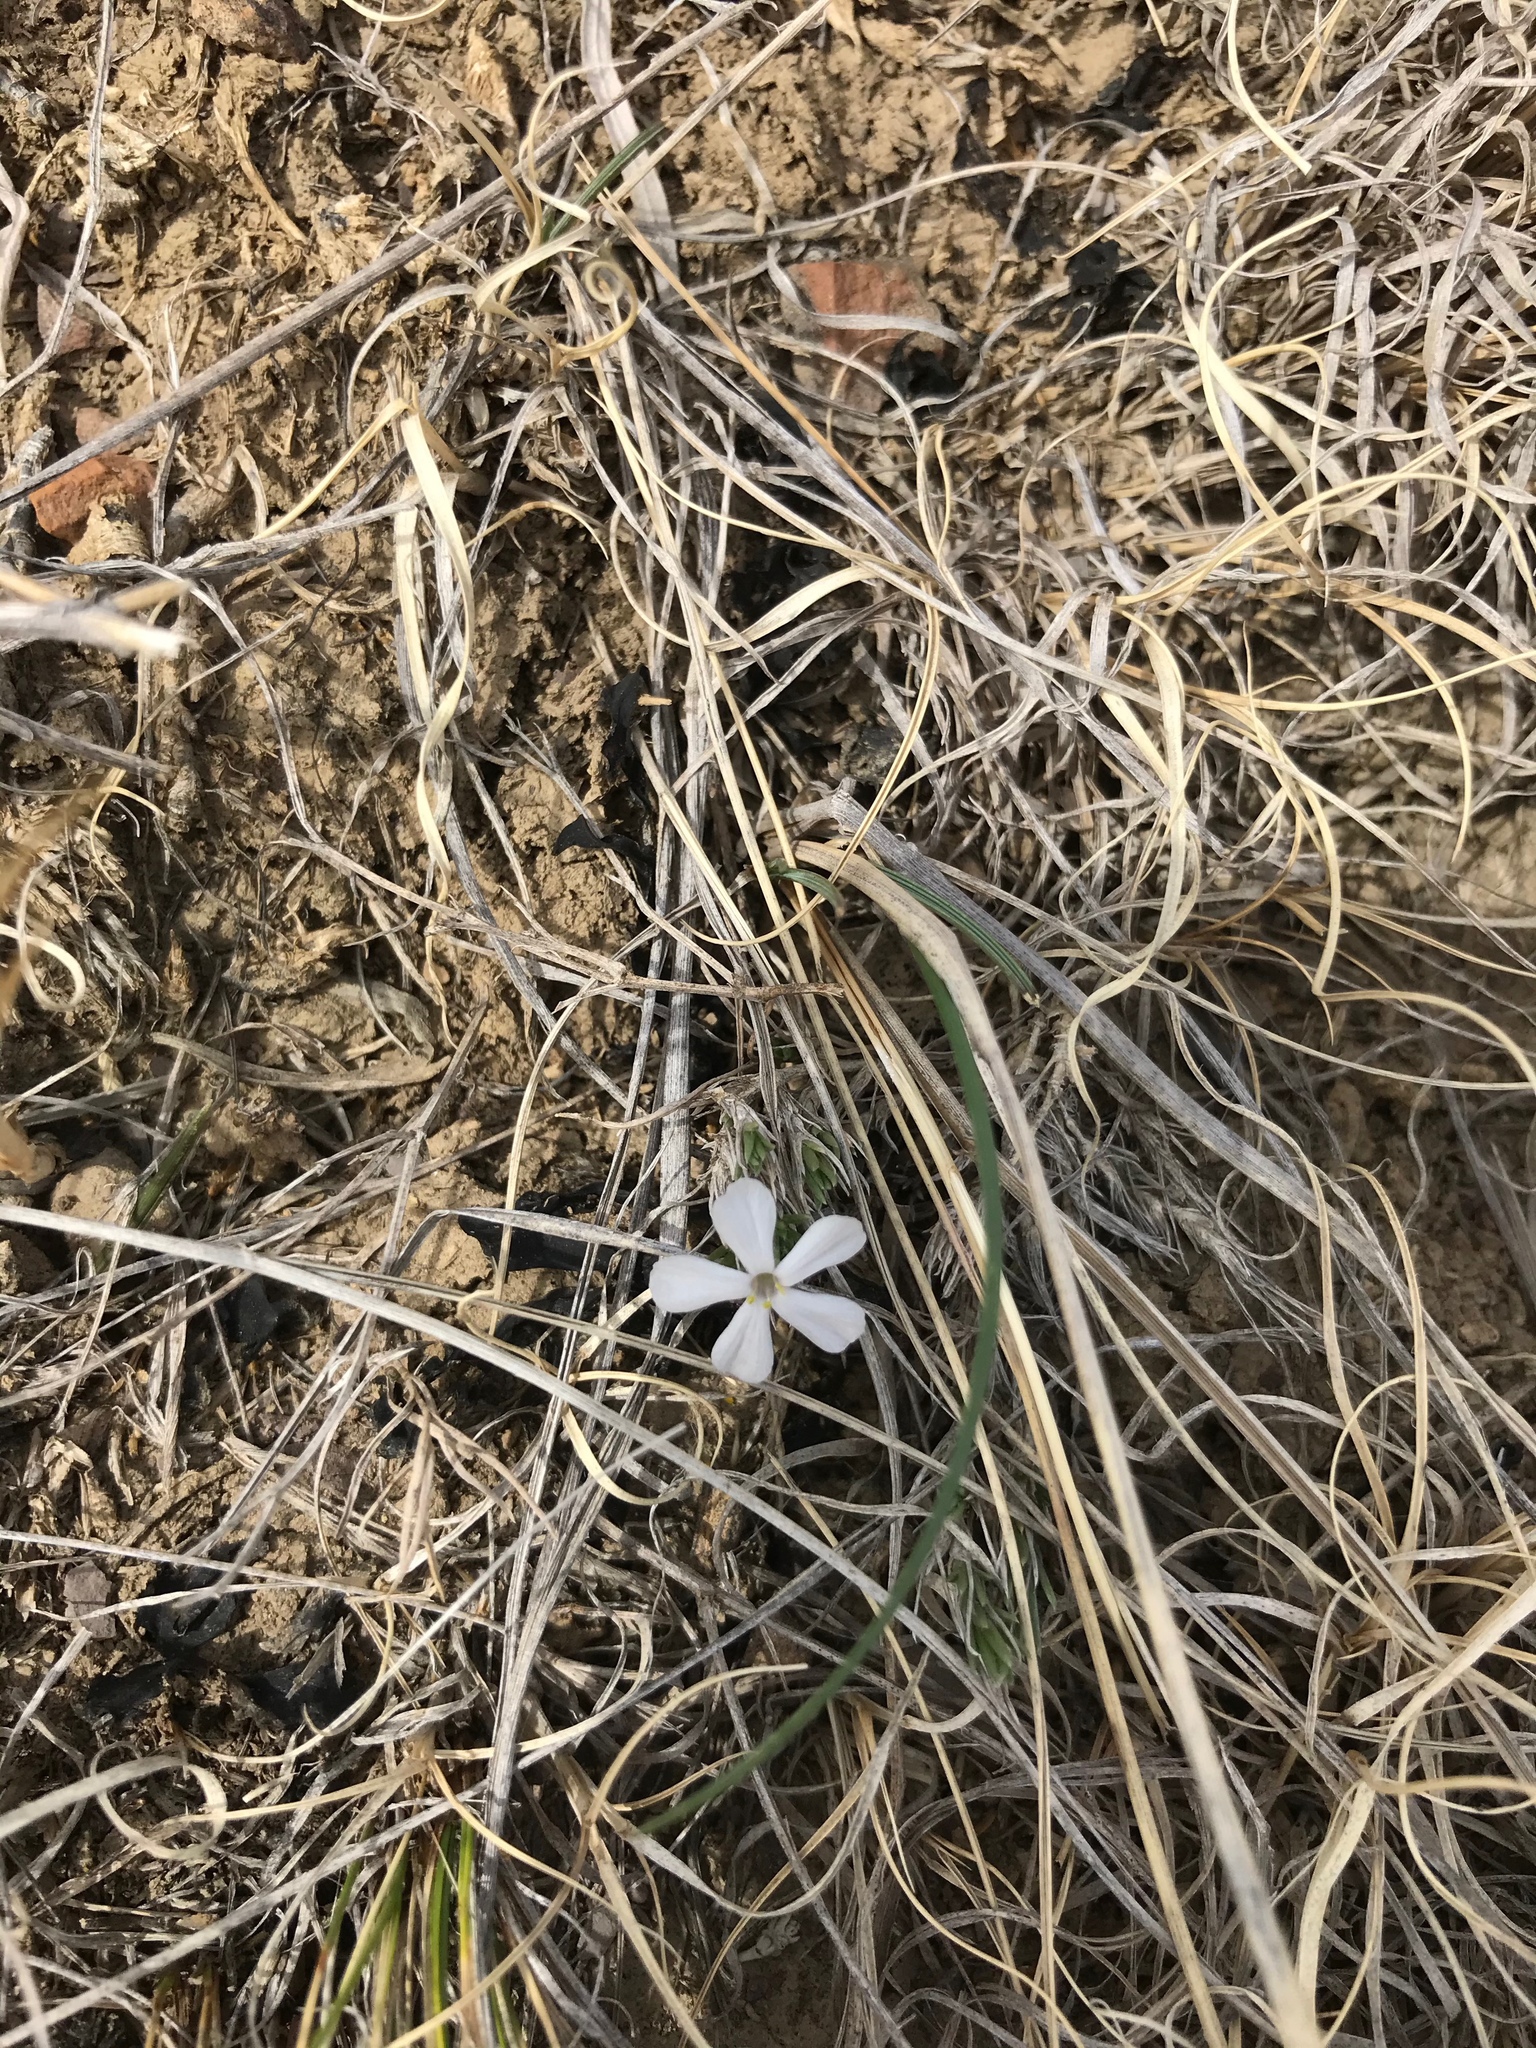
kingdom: Plantae
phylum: Tracheophyta
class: Magnoliopsida
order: Ericales
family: Polemoniaceae
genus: Phlox
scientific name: Phlox hoodii
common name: Moss phlox
